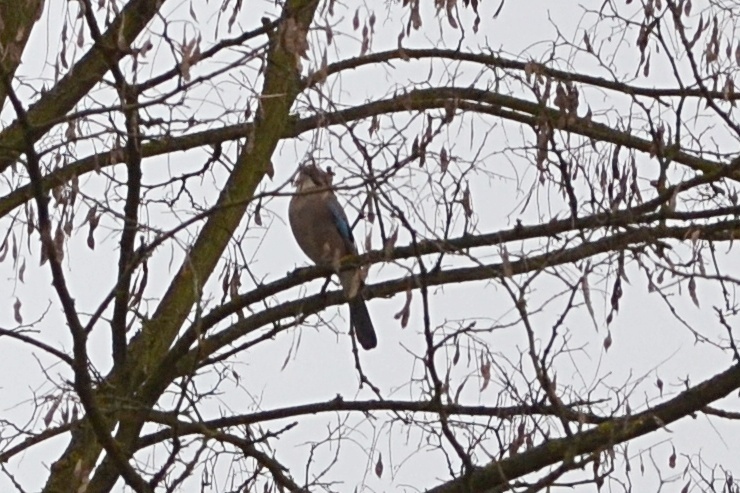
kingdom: Animalia
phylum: Chordata
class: Aves
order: Passeriformes
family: Corvidae
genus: Garrulus
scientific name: Garrulus glandarius
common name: Eurasian jay
